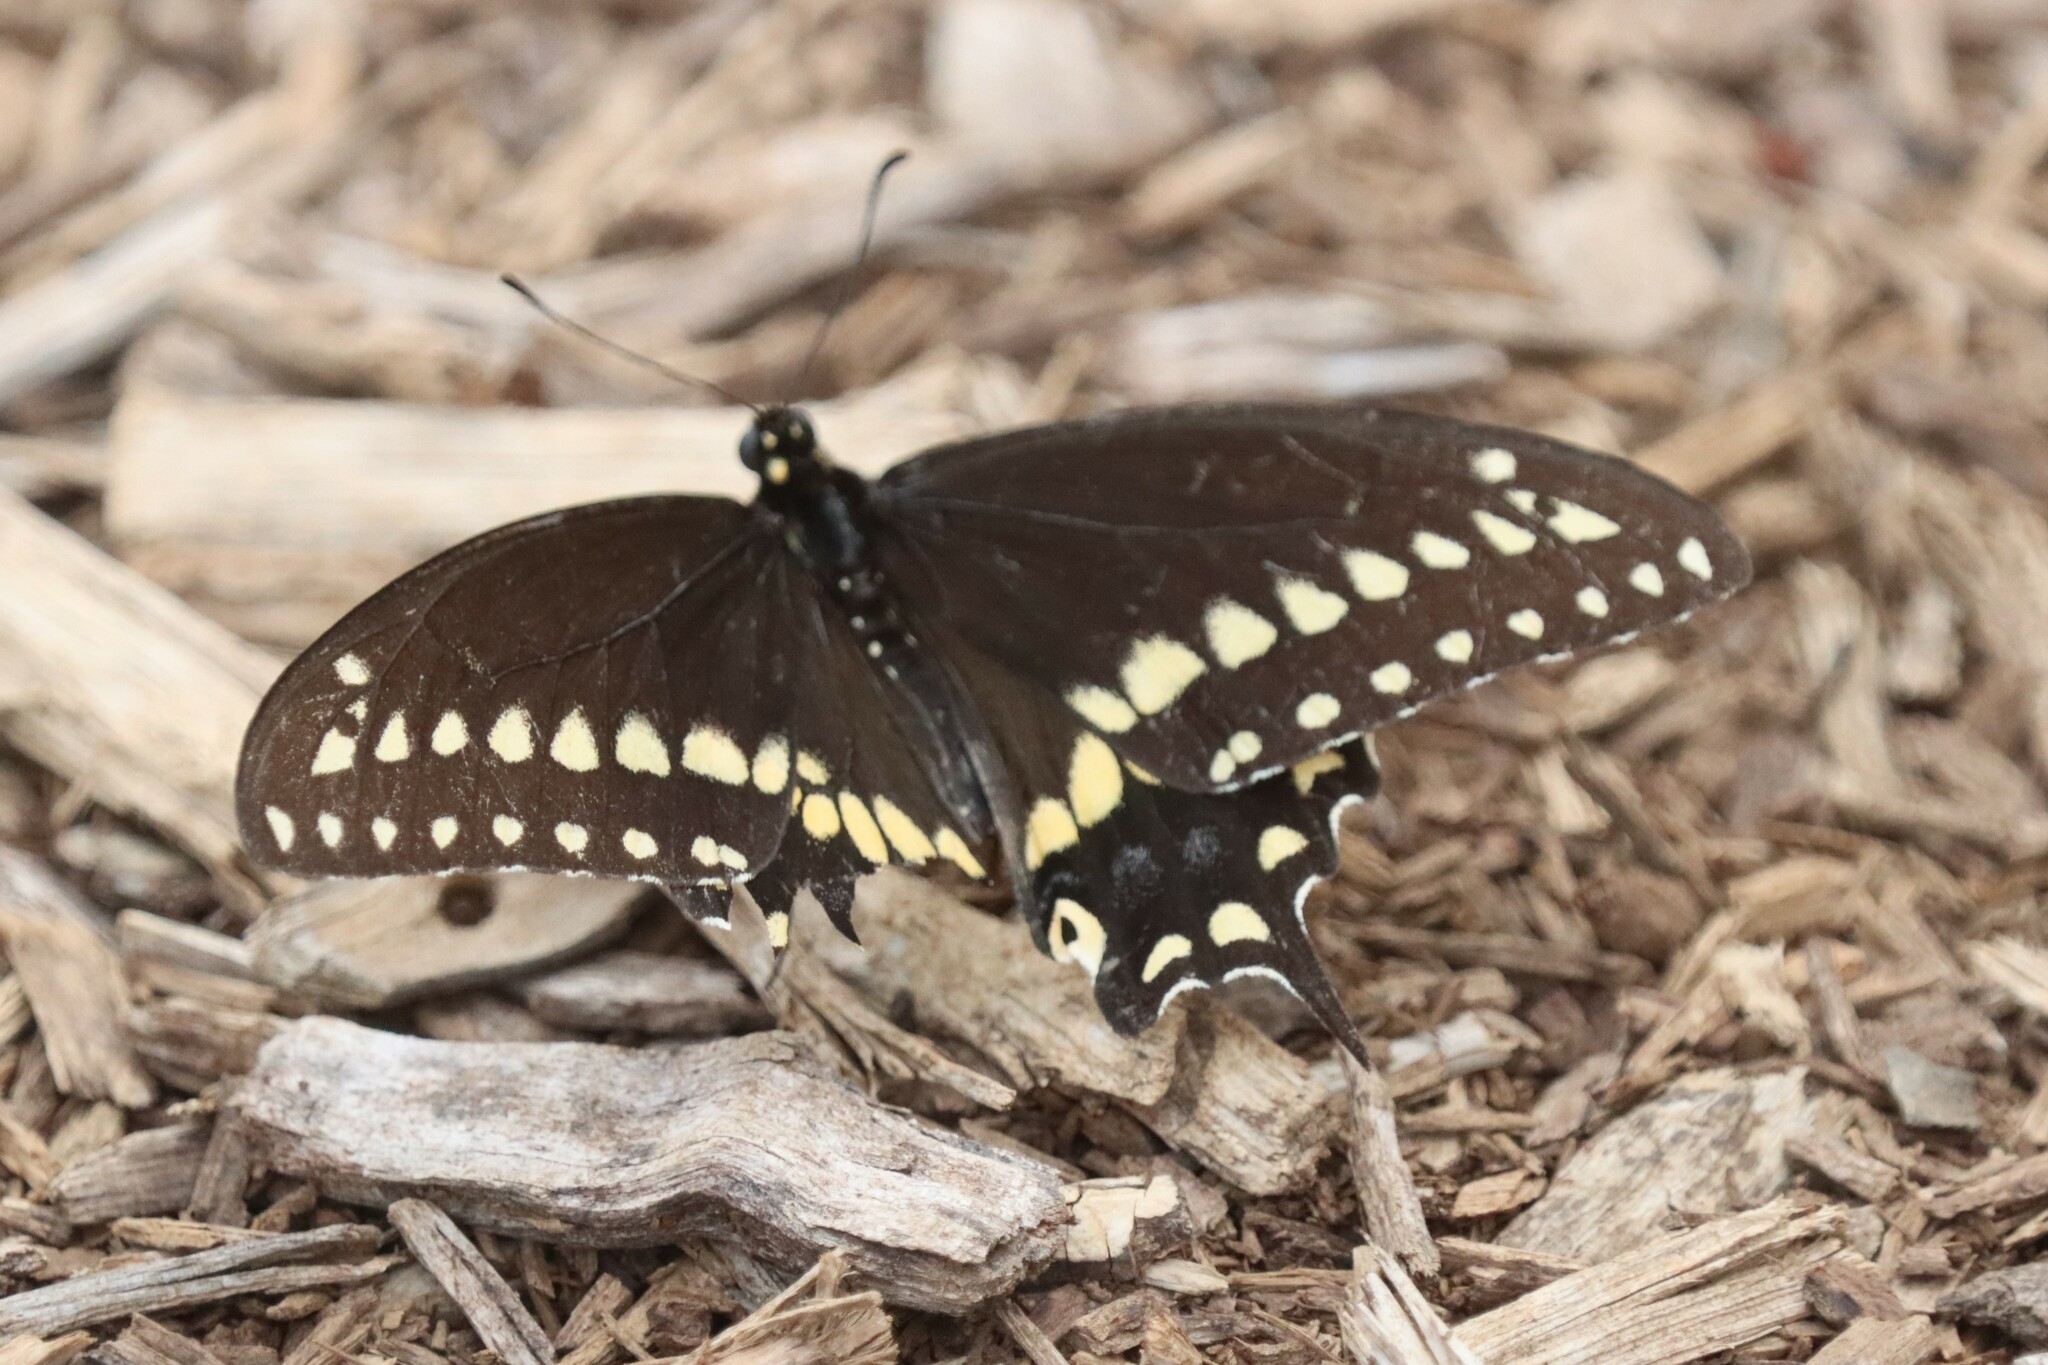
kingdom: Animalia
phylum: Arthropoda
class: Insecta
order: Lepidoptera
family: Papilionidae
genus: Papilio
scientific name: Papilio polyxenes
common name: Black swallowtail
